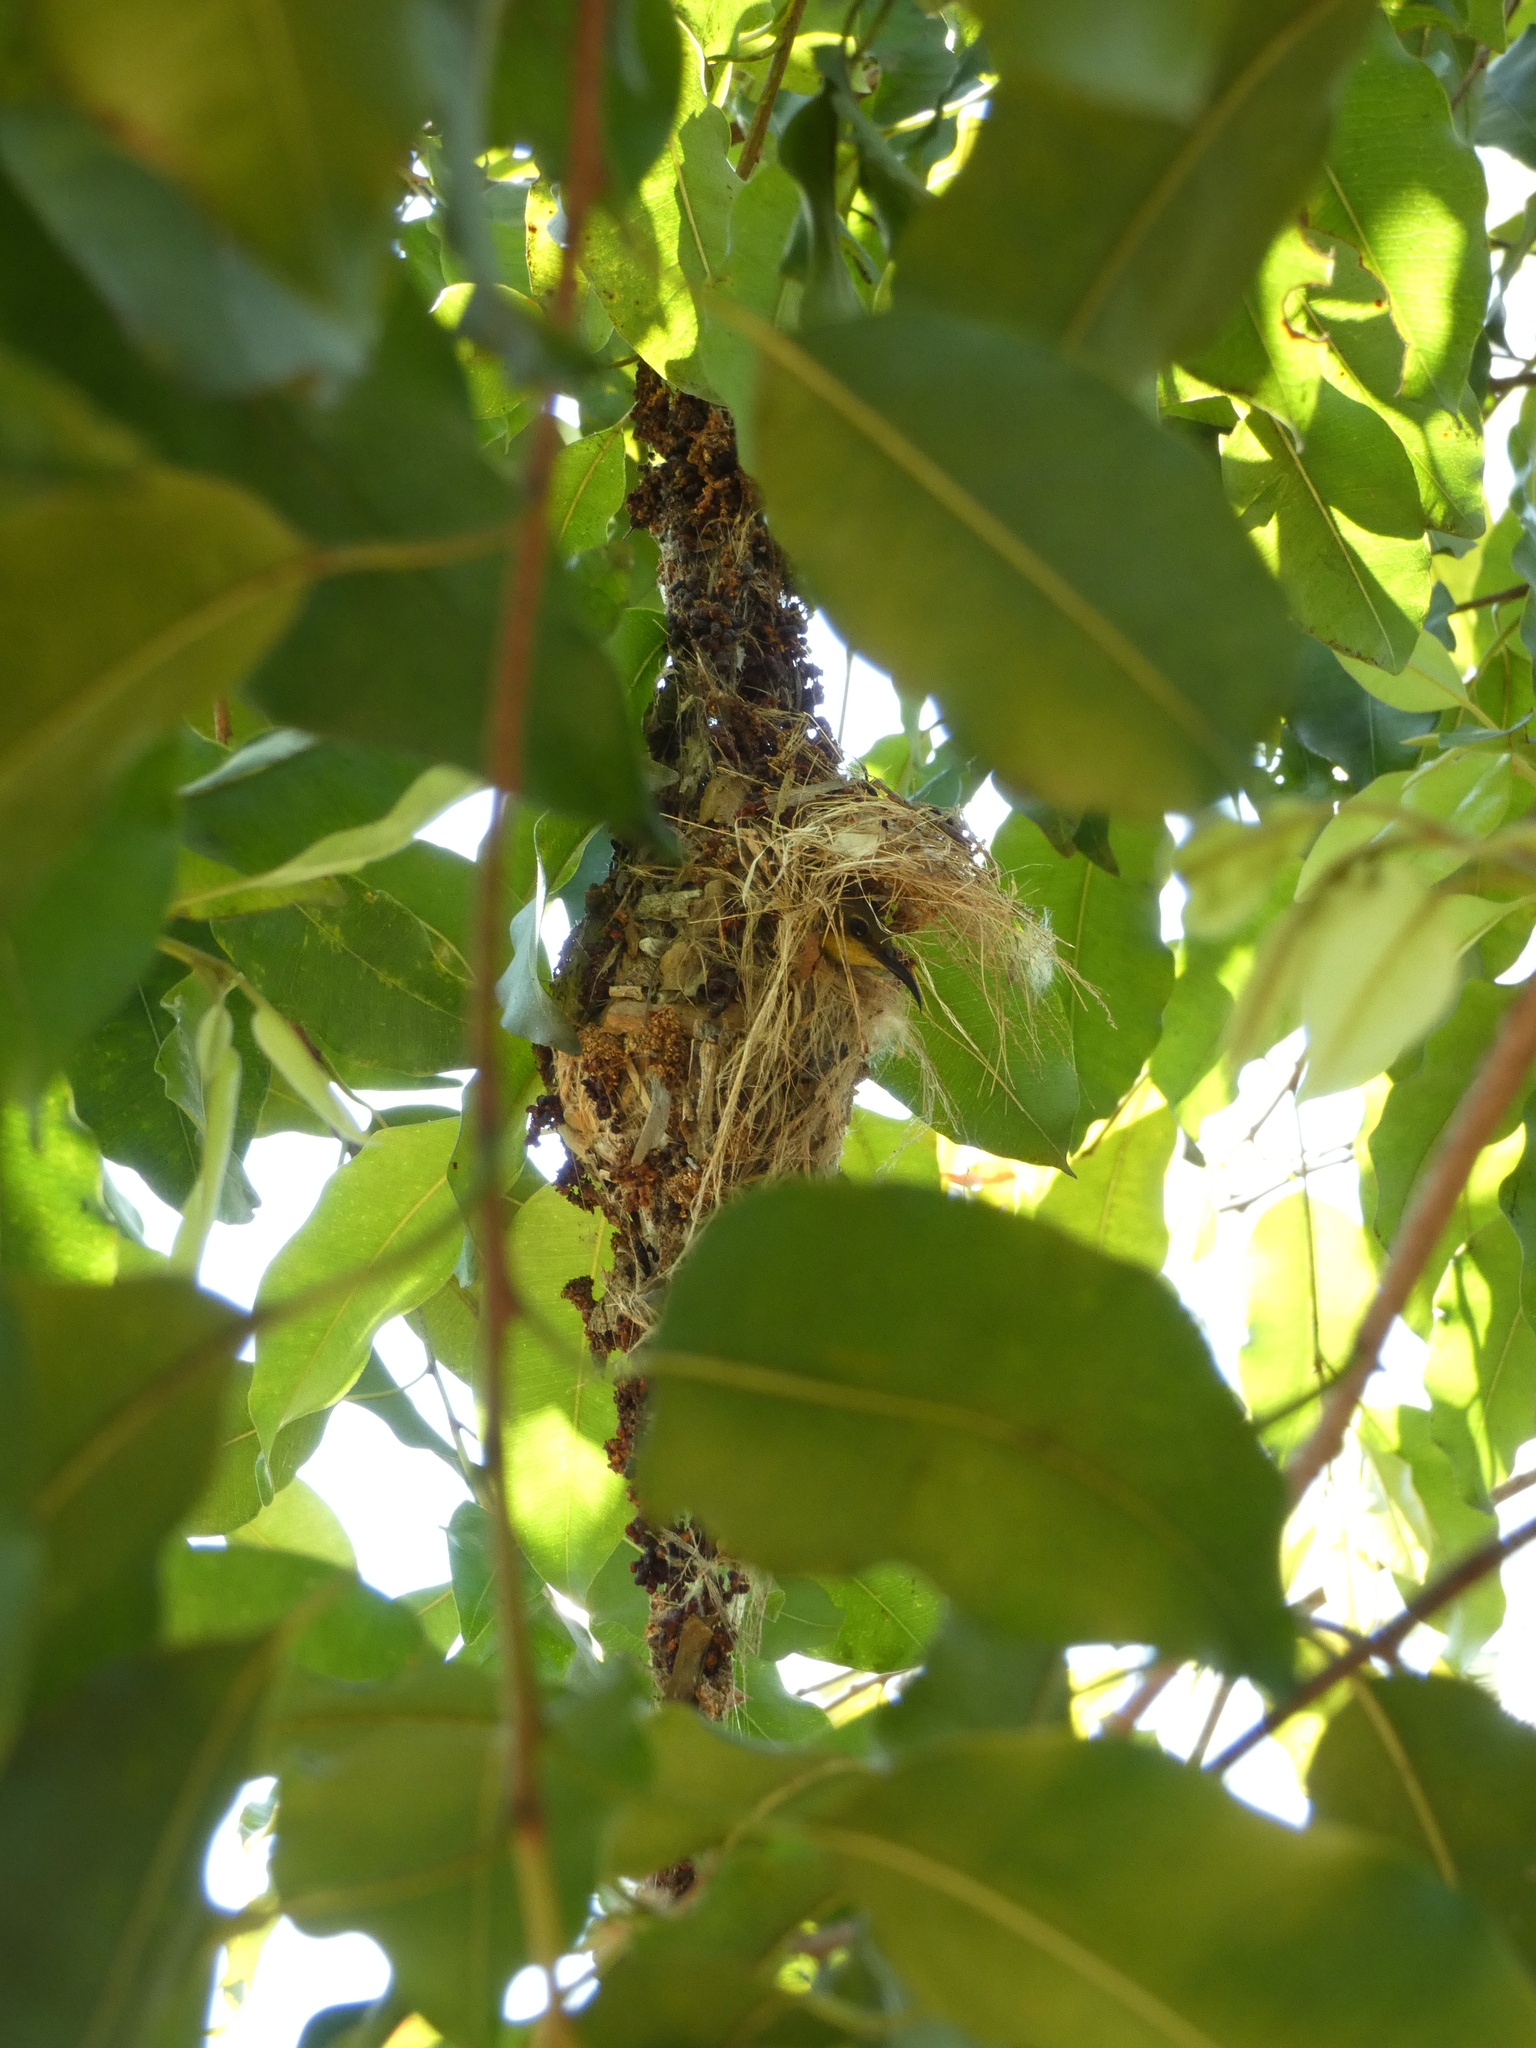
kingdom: Animalia
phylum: Chordata
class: Aves
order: Passeriformes
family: Nectariniidae
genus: Cinnyris
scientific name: Cinnyris
